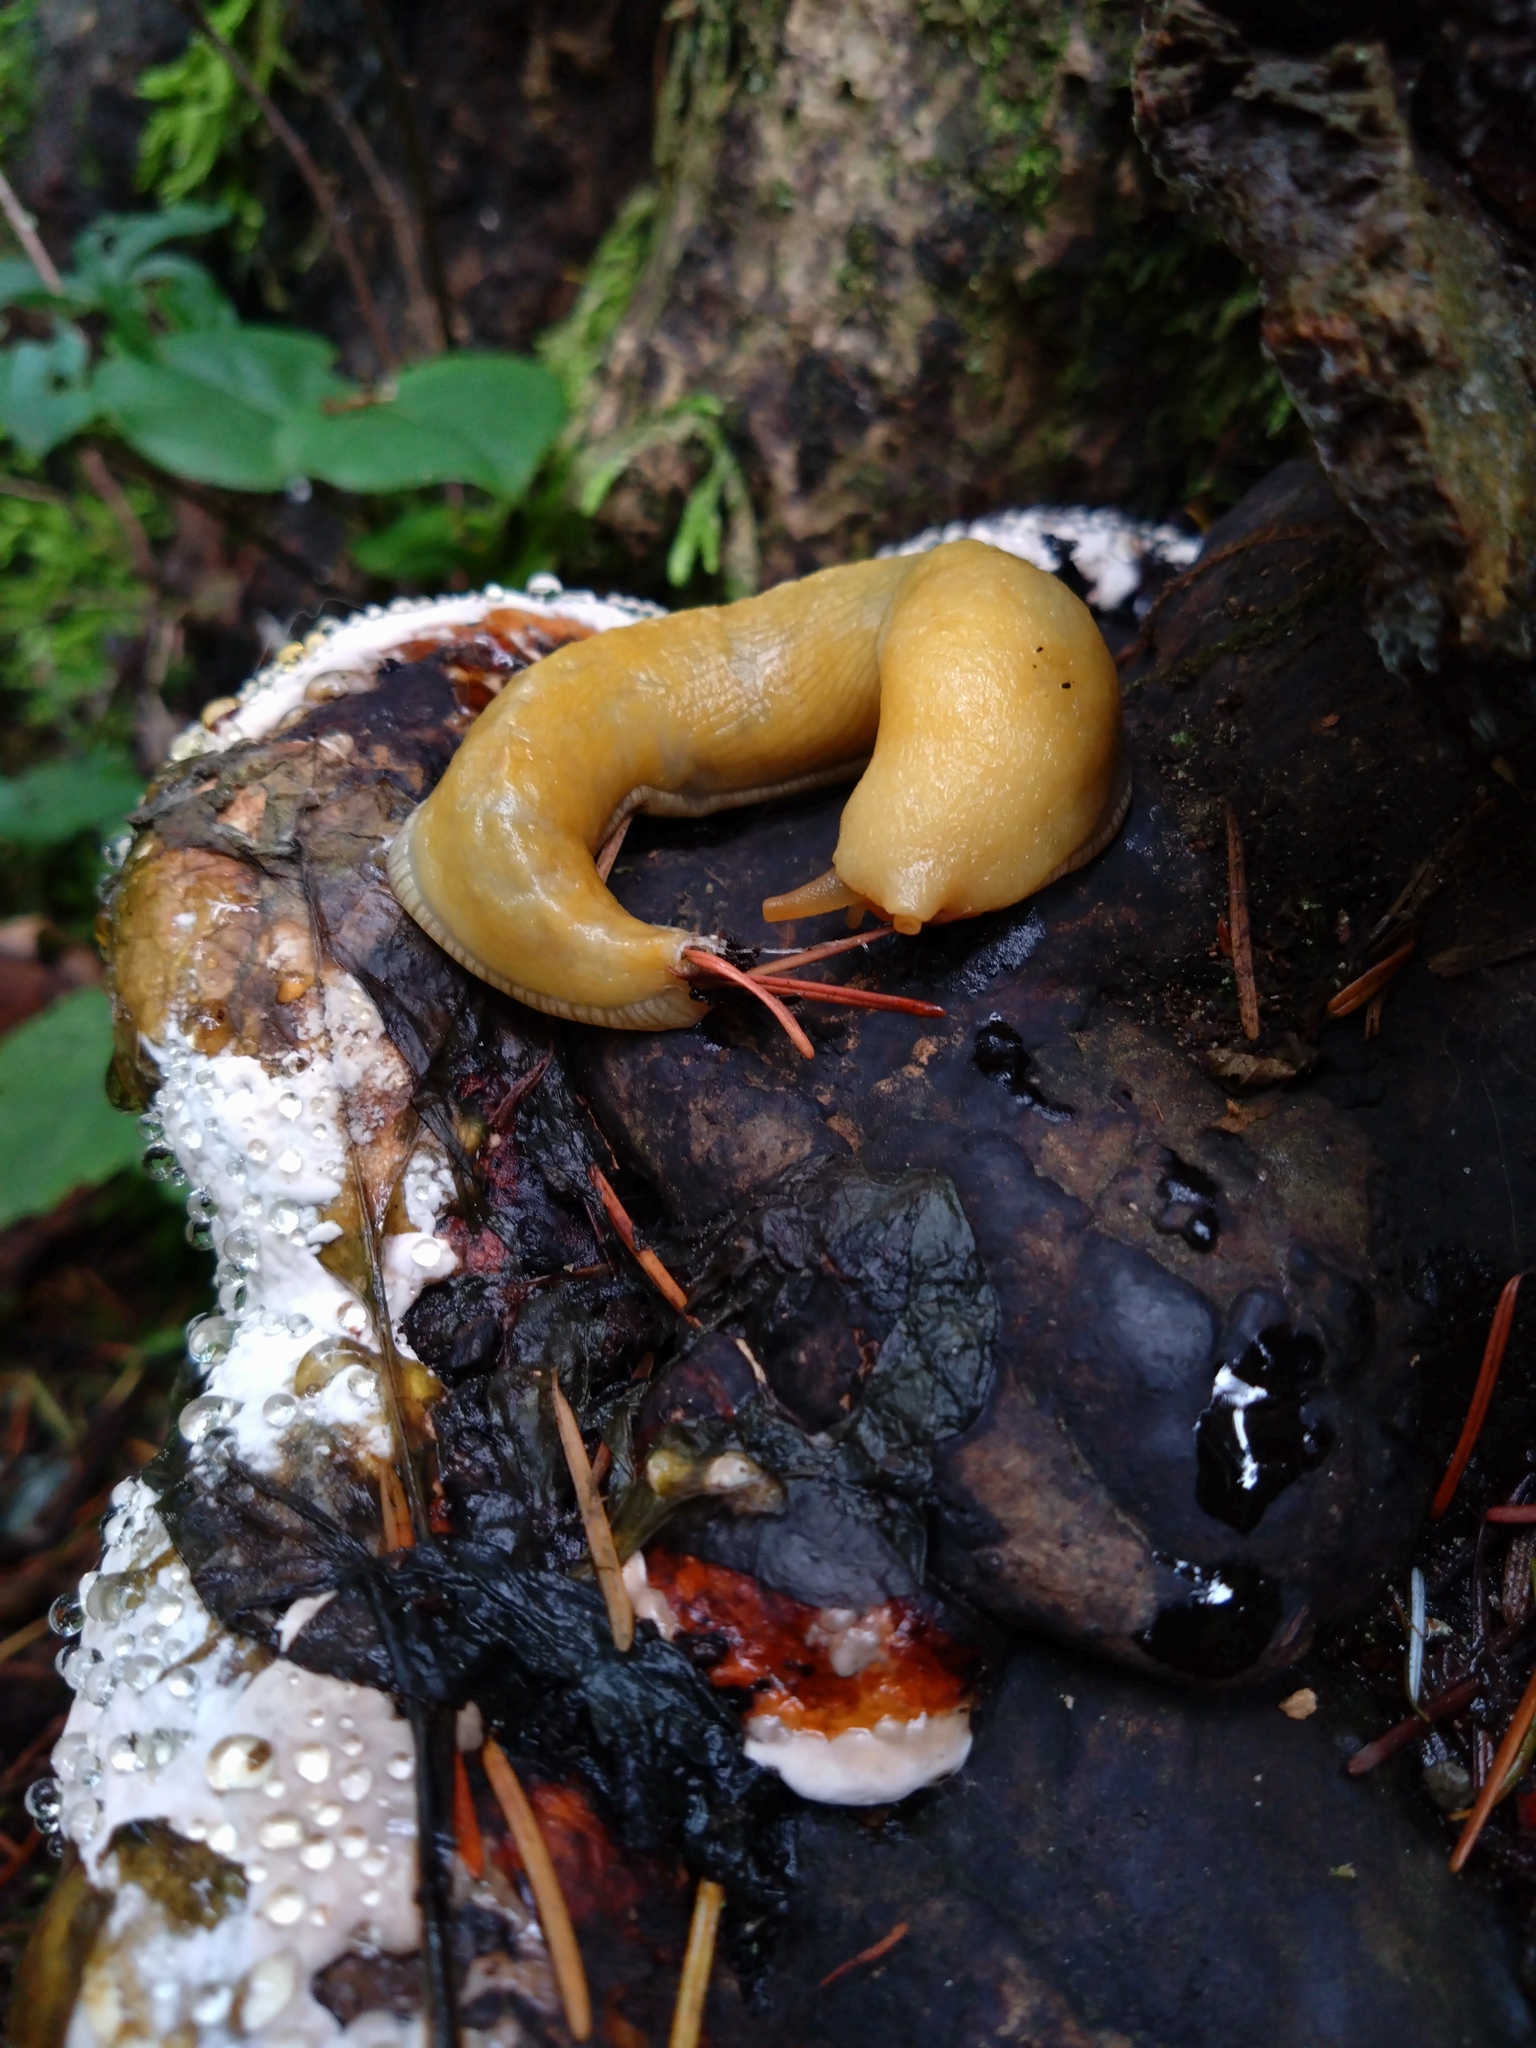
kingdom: Animalia
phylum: Mollusca
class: Gastropoda
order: Stylommatophora
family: Ariolimacidae
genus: Ariolimax
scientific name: Ariolimax columbianus
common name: Pacific banana slug
